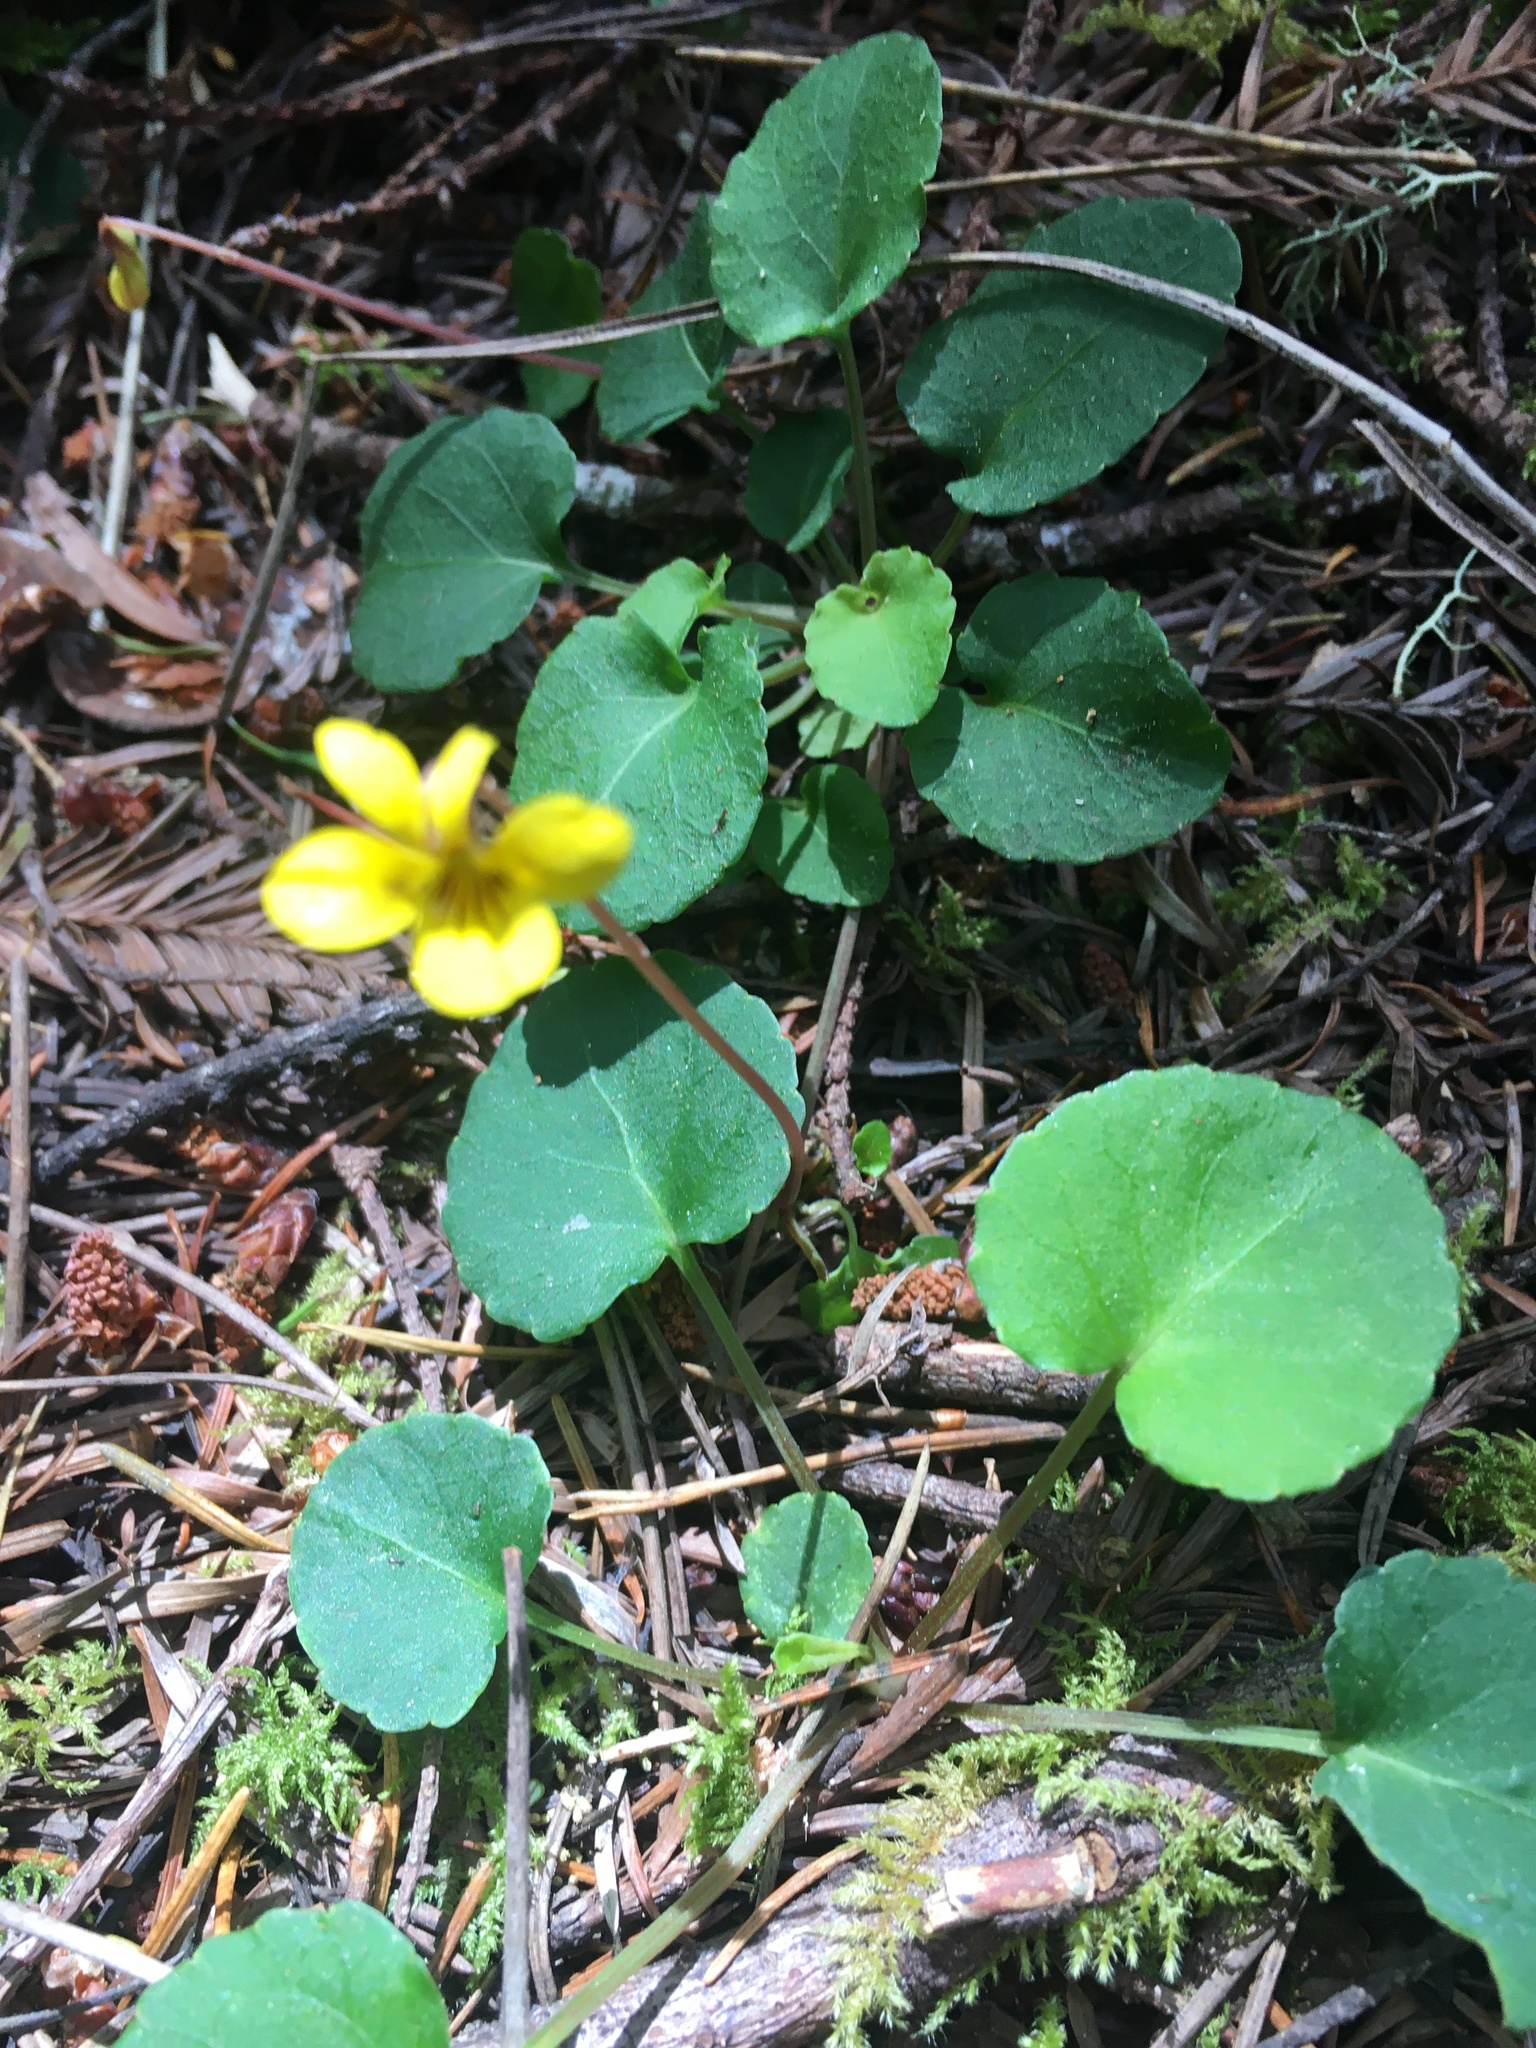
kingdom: Plantae
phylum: Tracheophyta
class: Magnoliopsida
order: Malpighiales
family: Violaceae
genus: Viola
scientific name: Viola sempervirens
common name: Evergreen violet
